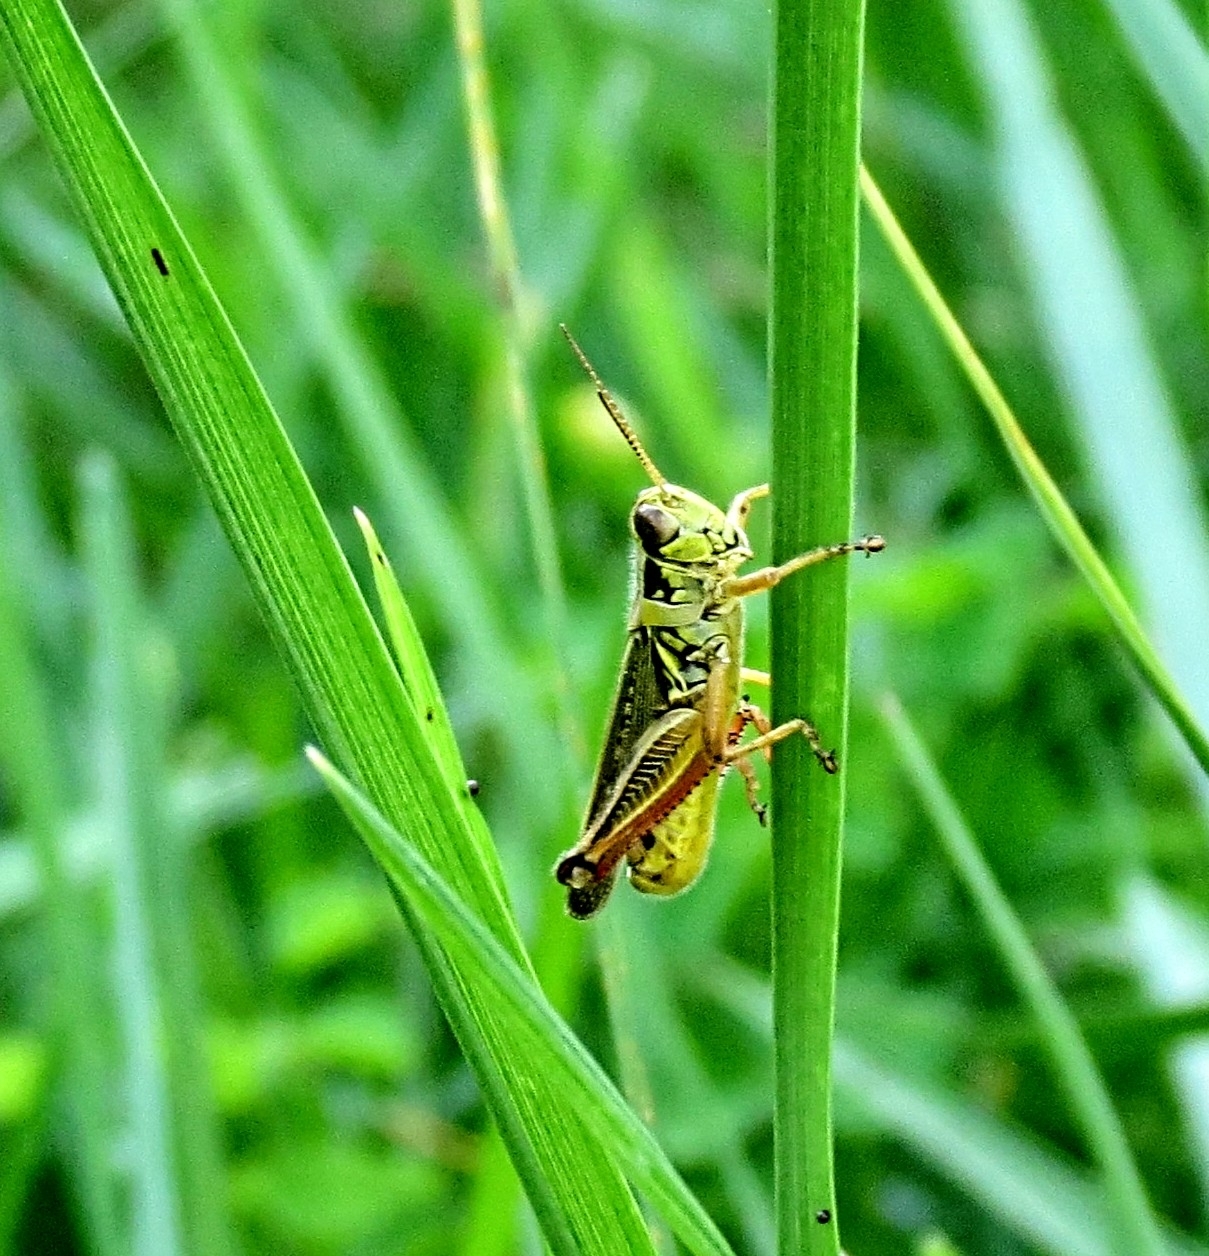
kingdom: Animalia
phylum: Arthropoda
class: Insecta
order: Orthoptera
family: Acrididae
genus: Melanoplus
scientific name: Melanoplus femurrubrum
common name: Red-legged grasshopper
